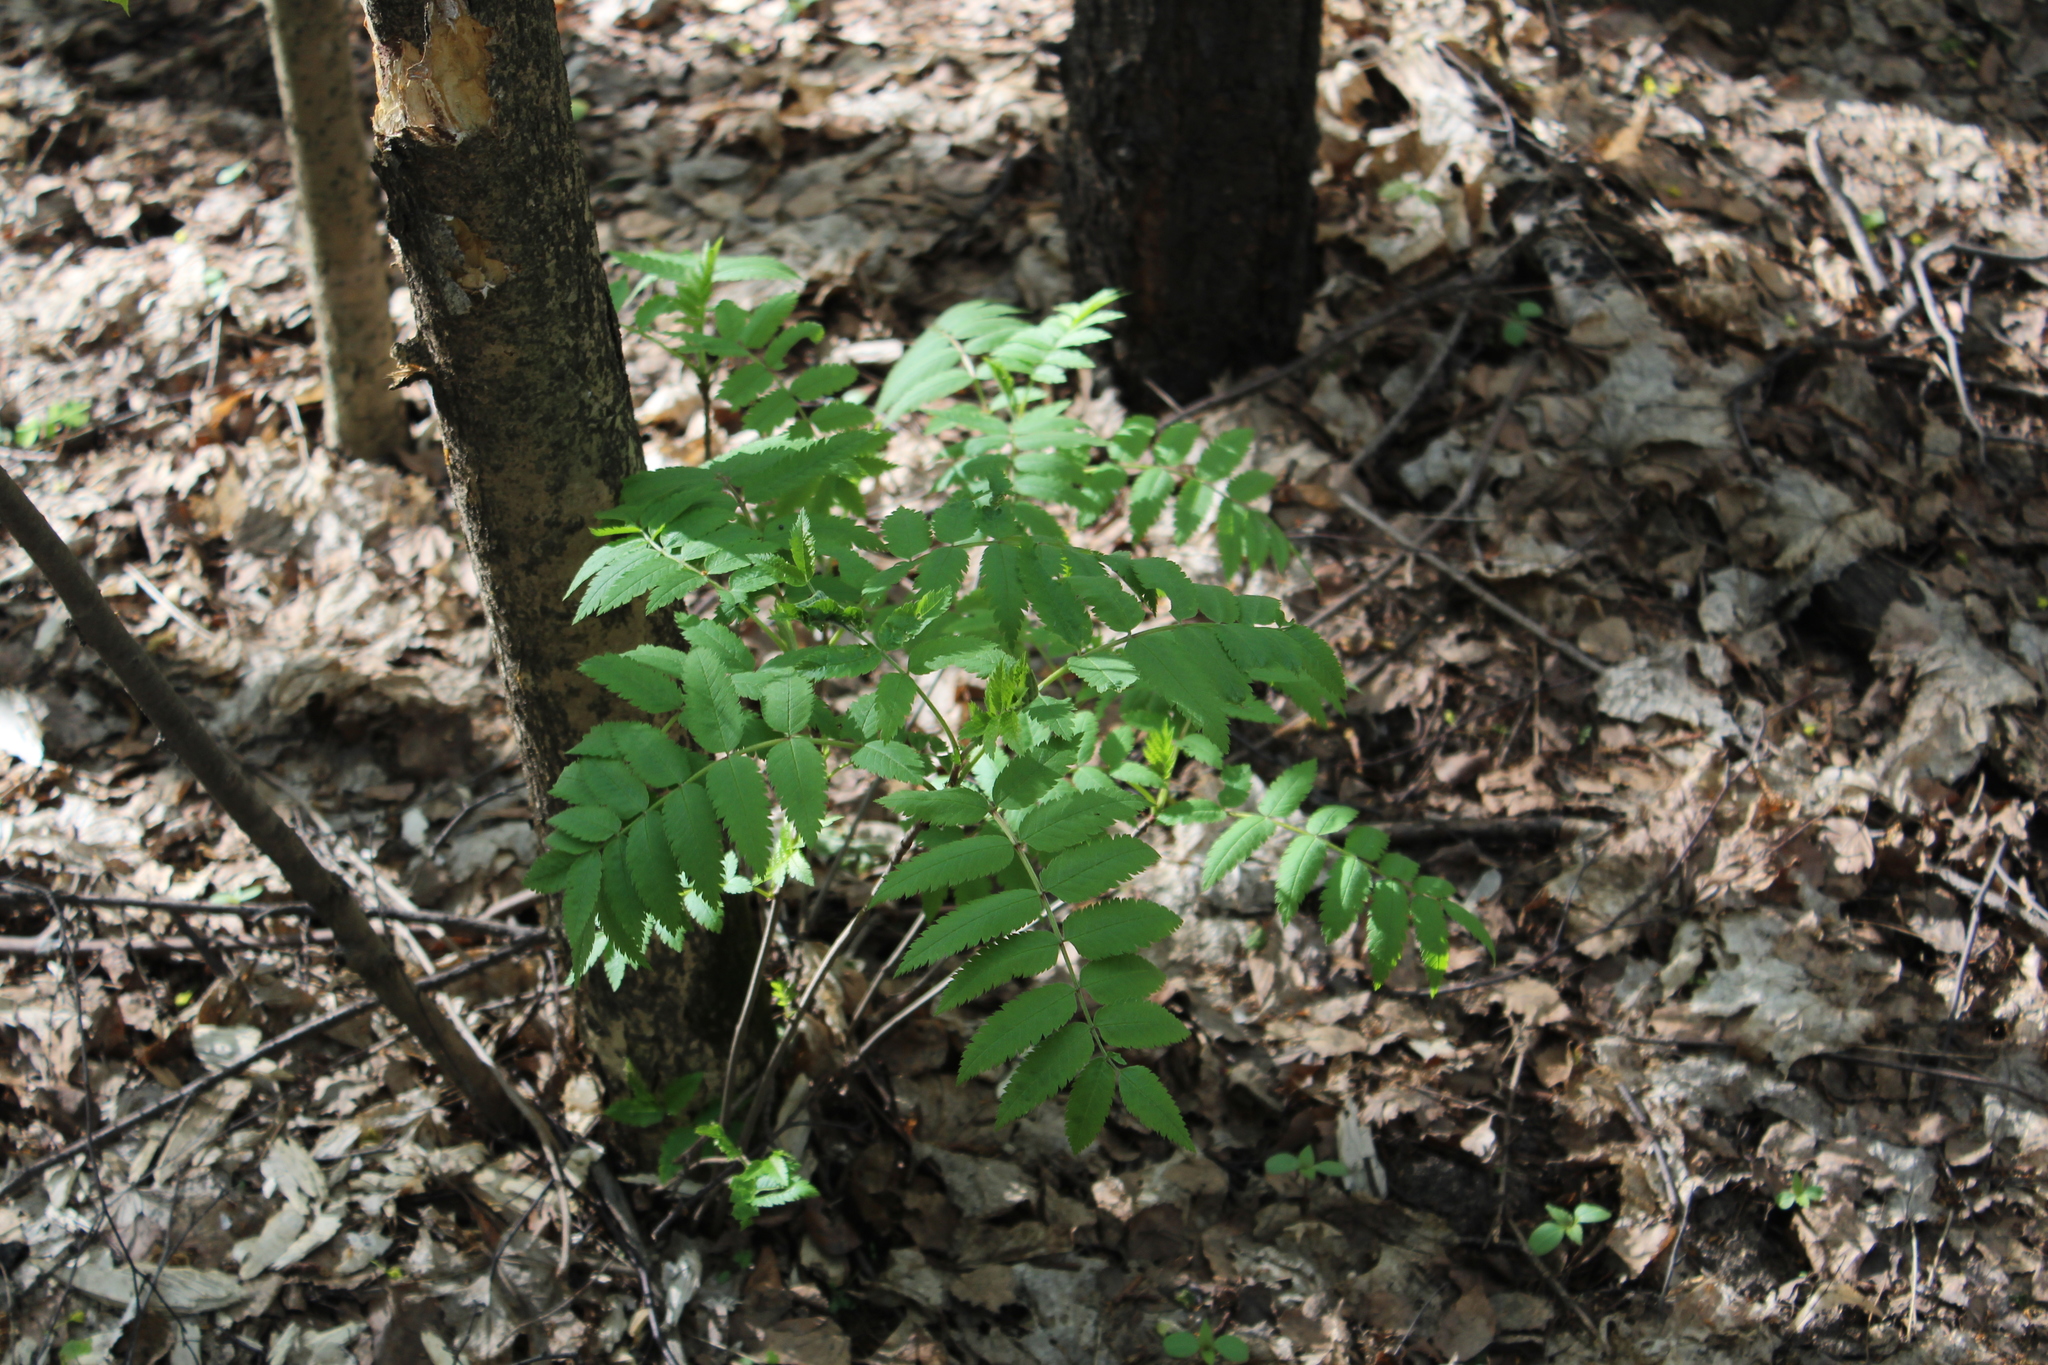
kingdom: Plantae
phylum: Tracheophyta
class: Magnoliopsida
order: Rosales
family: Rosaceae
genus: Sorbus
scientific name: Sorbus aucuparia
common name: Rowan
